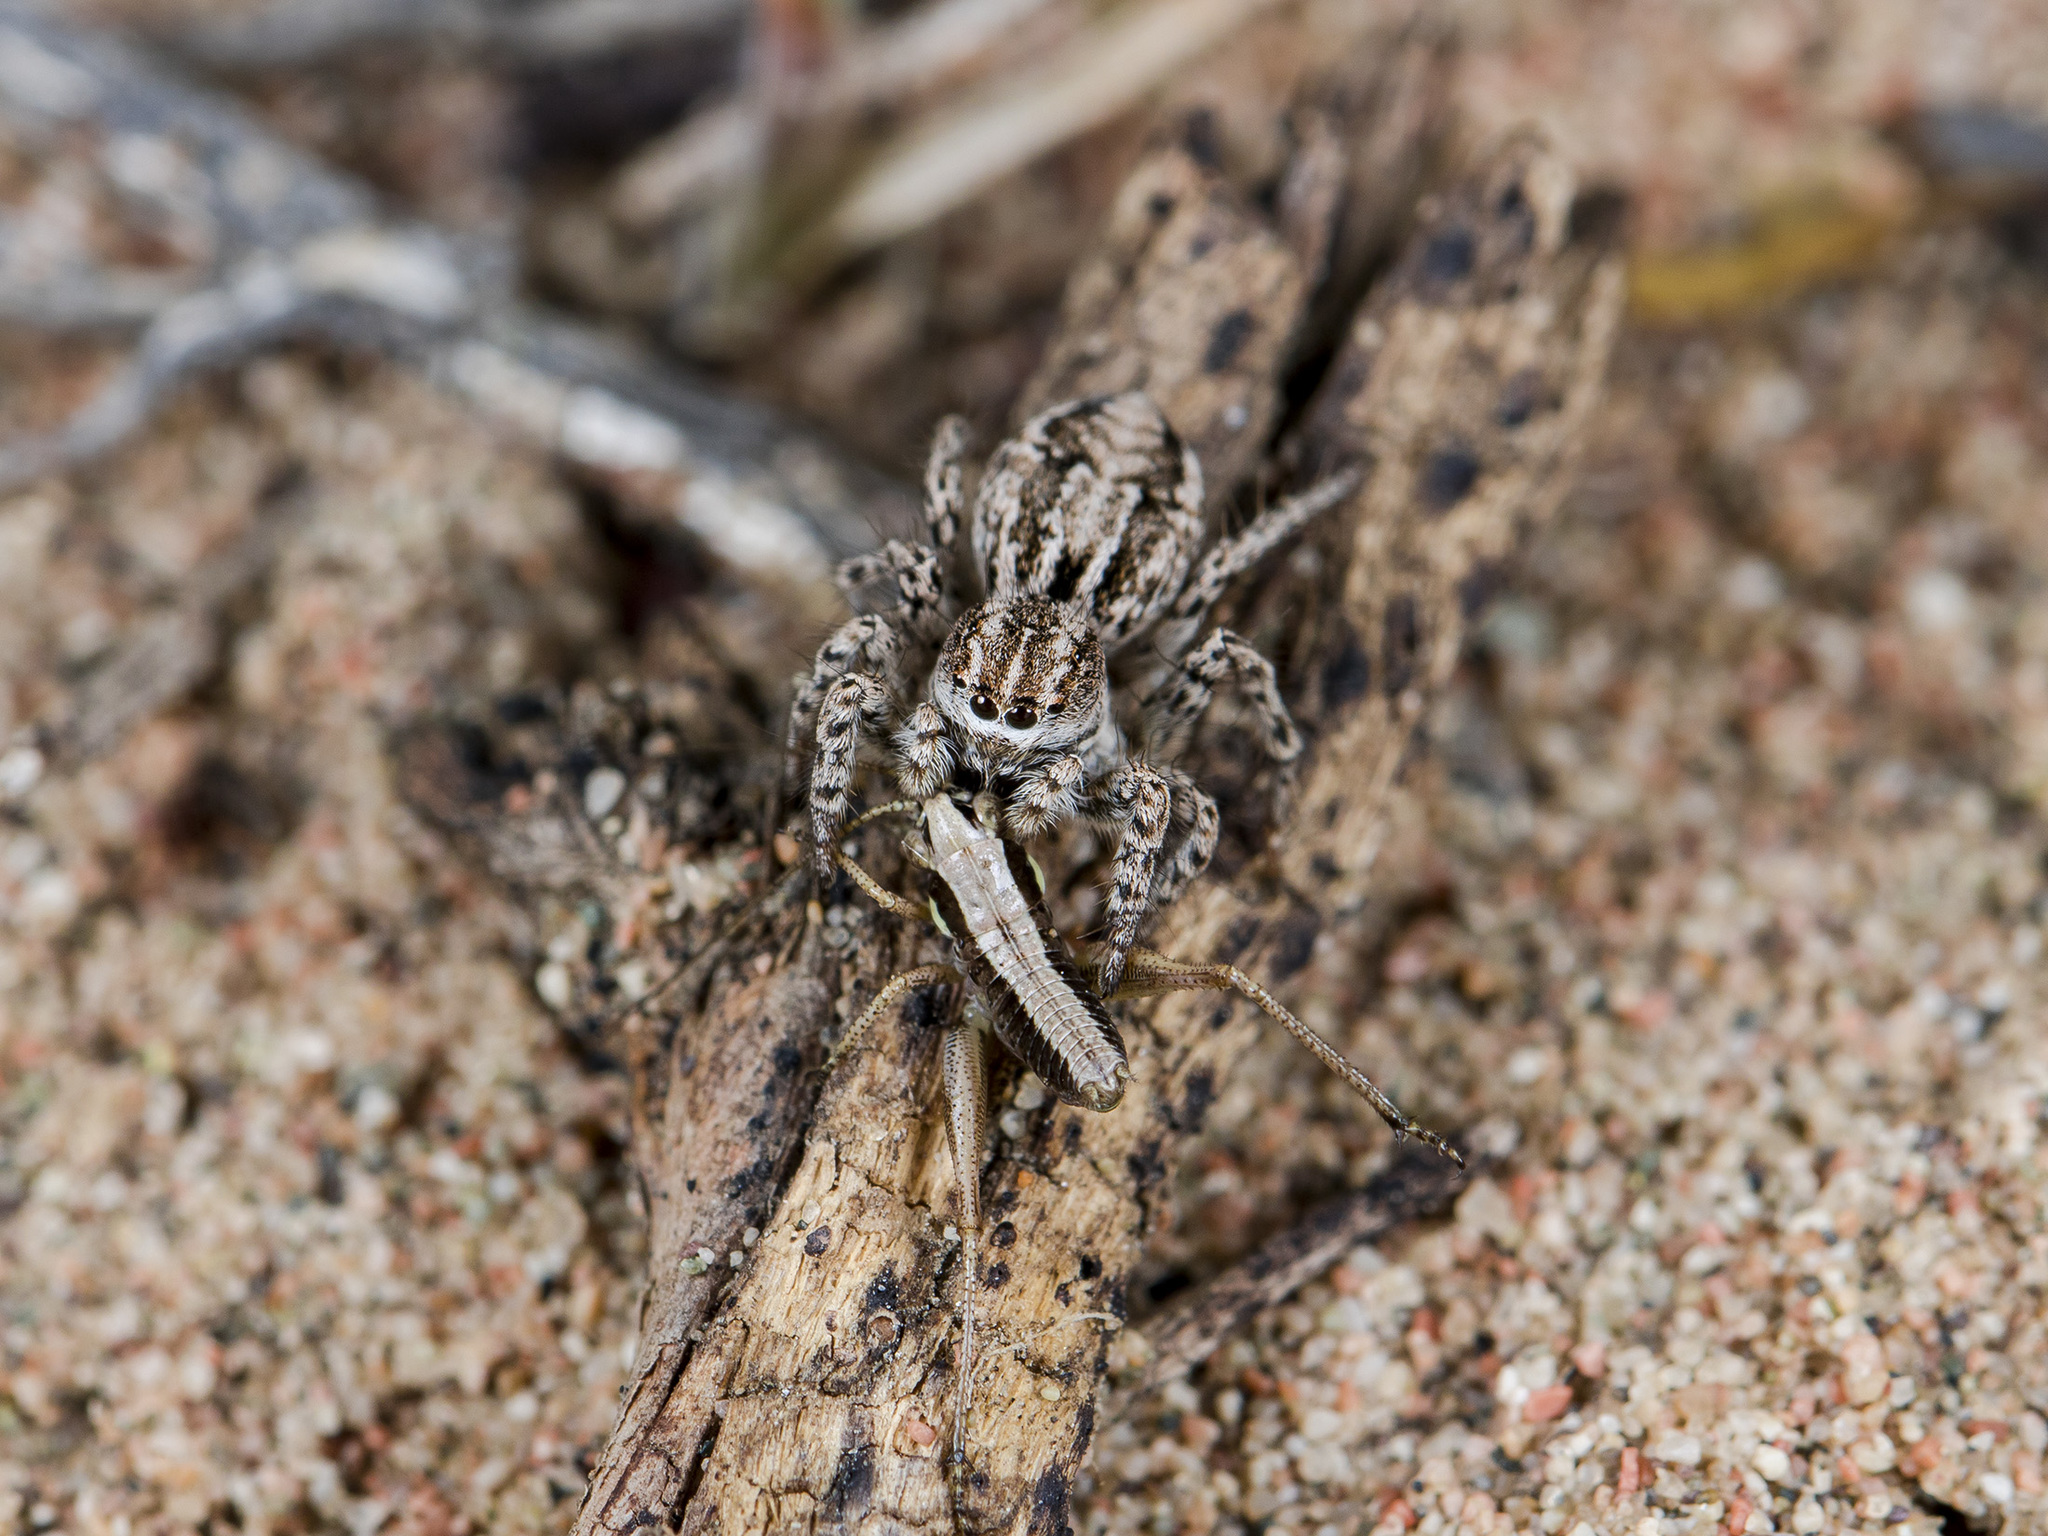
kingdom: Animalia
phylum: Arthropoda
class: Arachnida
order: Araneae
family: Salticidae
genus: Aelurillus
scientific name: Aelurillus m-nigrum
